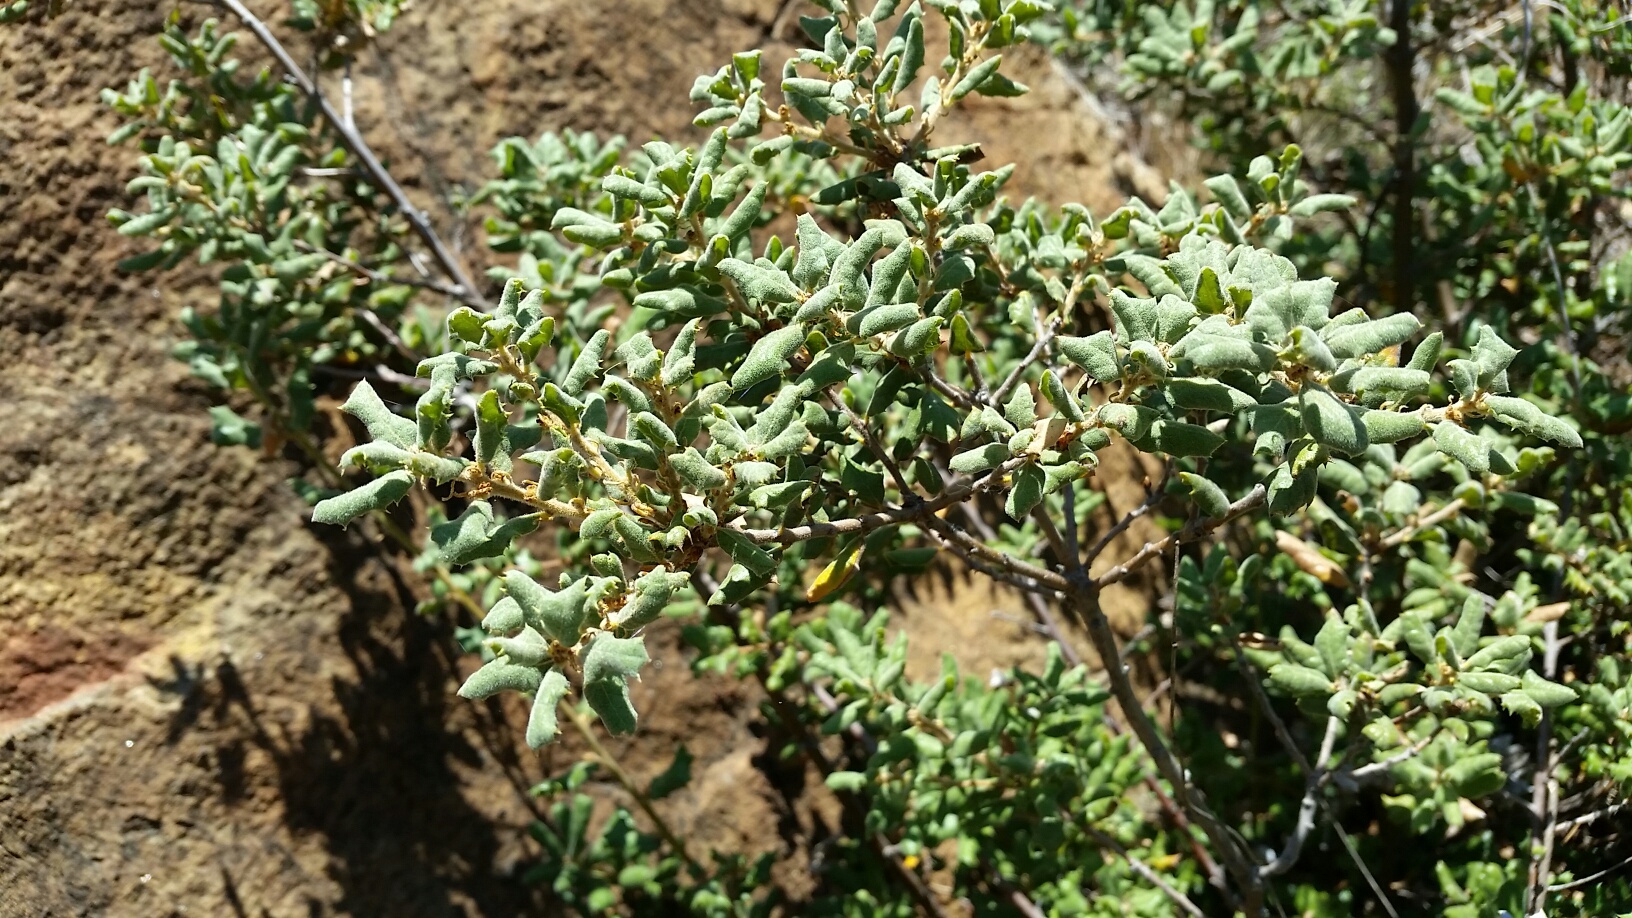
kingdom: Plantae
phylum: Tracheophyta
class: Magnoliopsida
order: Fagales
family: Fagaceae
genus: Quercus
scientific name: Quercus durata
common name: Leather oak
